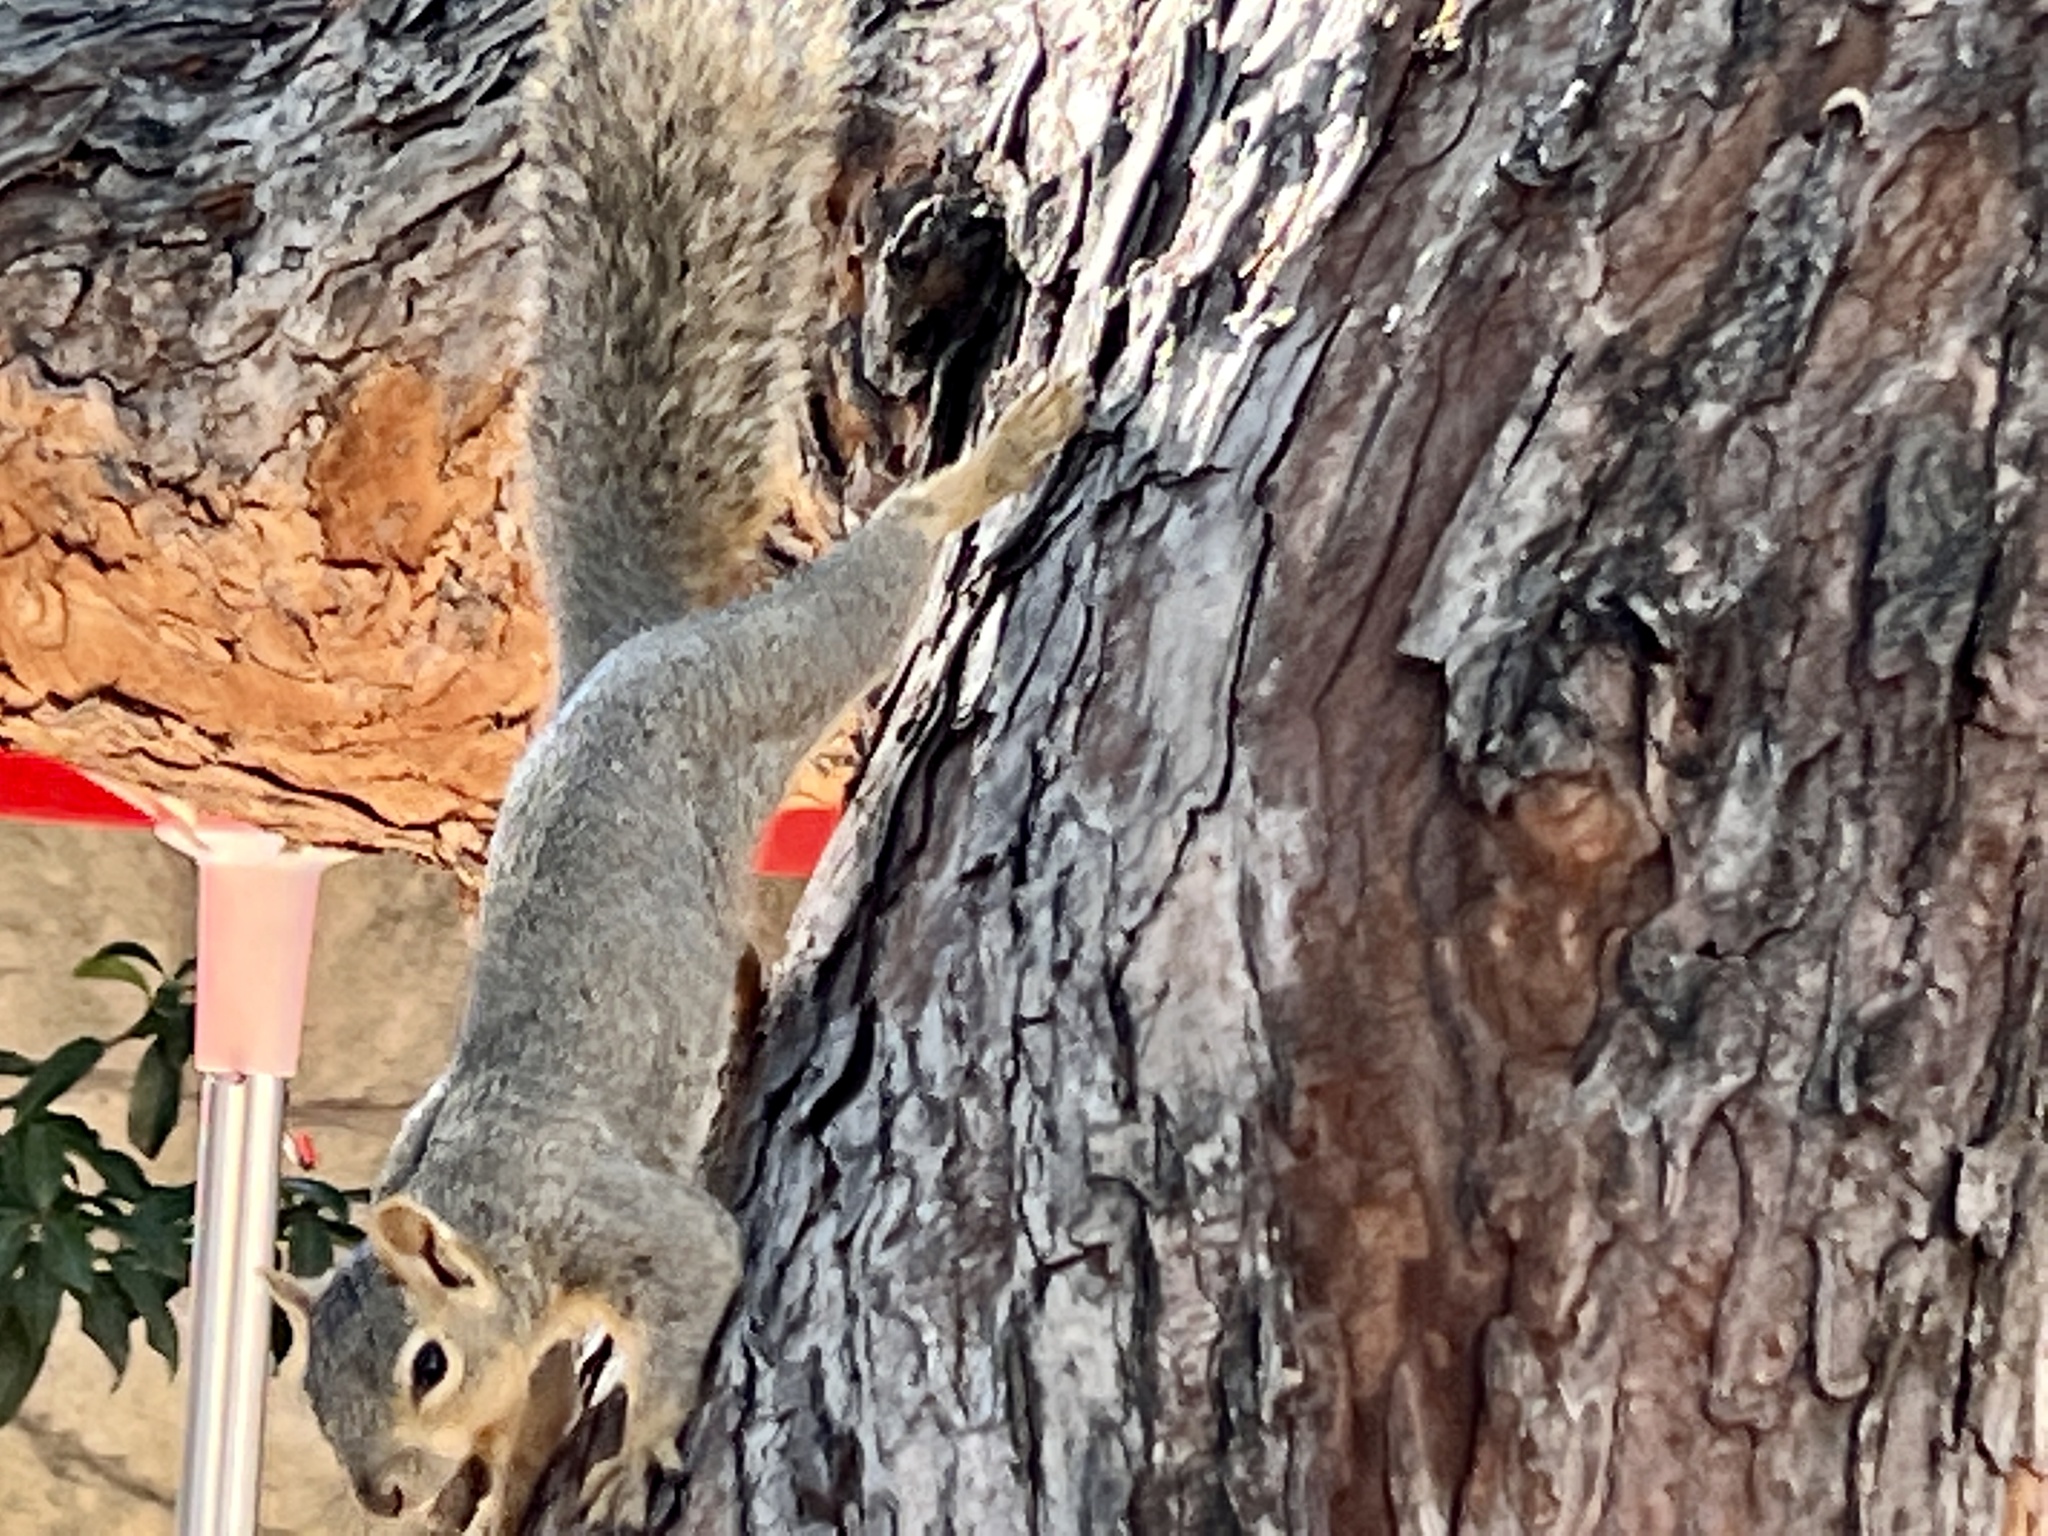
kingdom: Animalia
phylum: Chordata
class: Mammalia
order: Rodentia
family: Sciuridae
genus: Sciurus
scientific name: Sciurus niger
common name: Fox squirrel
